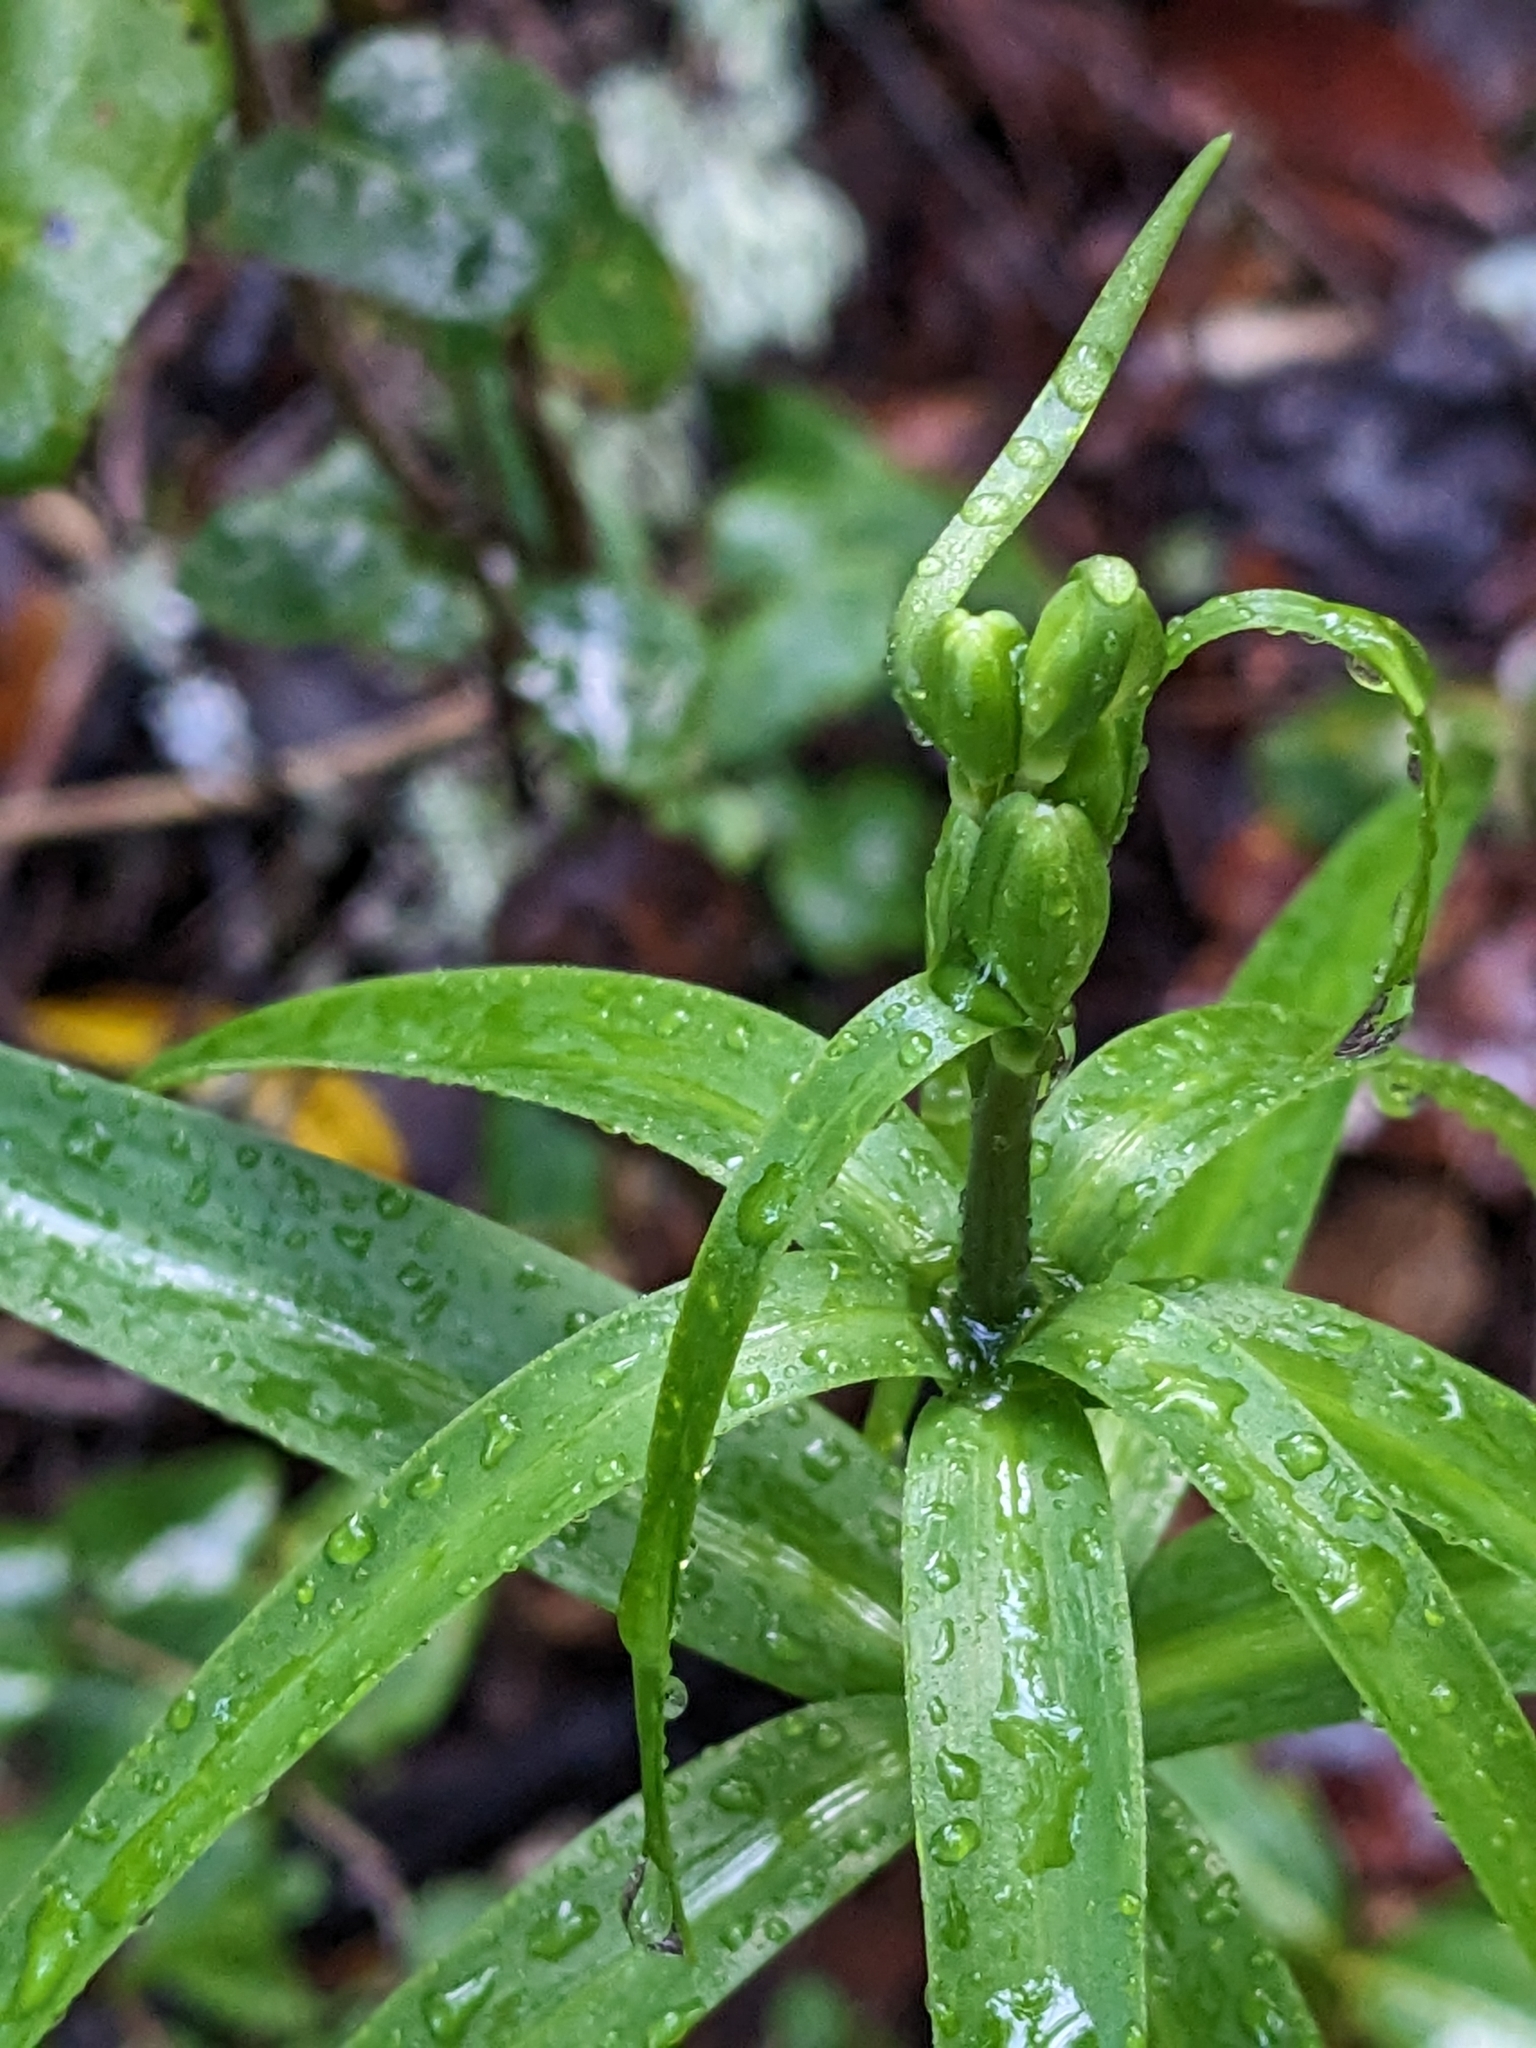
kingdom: Plantae
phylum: Tracheophyta
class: Liliopsida
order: Liliales
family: Liliaceae
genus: Fritillaria
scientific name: Fritillaria affinis
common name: Ojai fritillary
